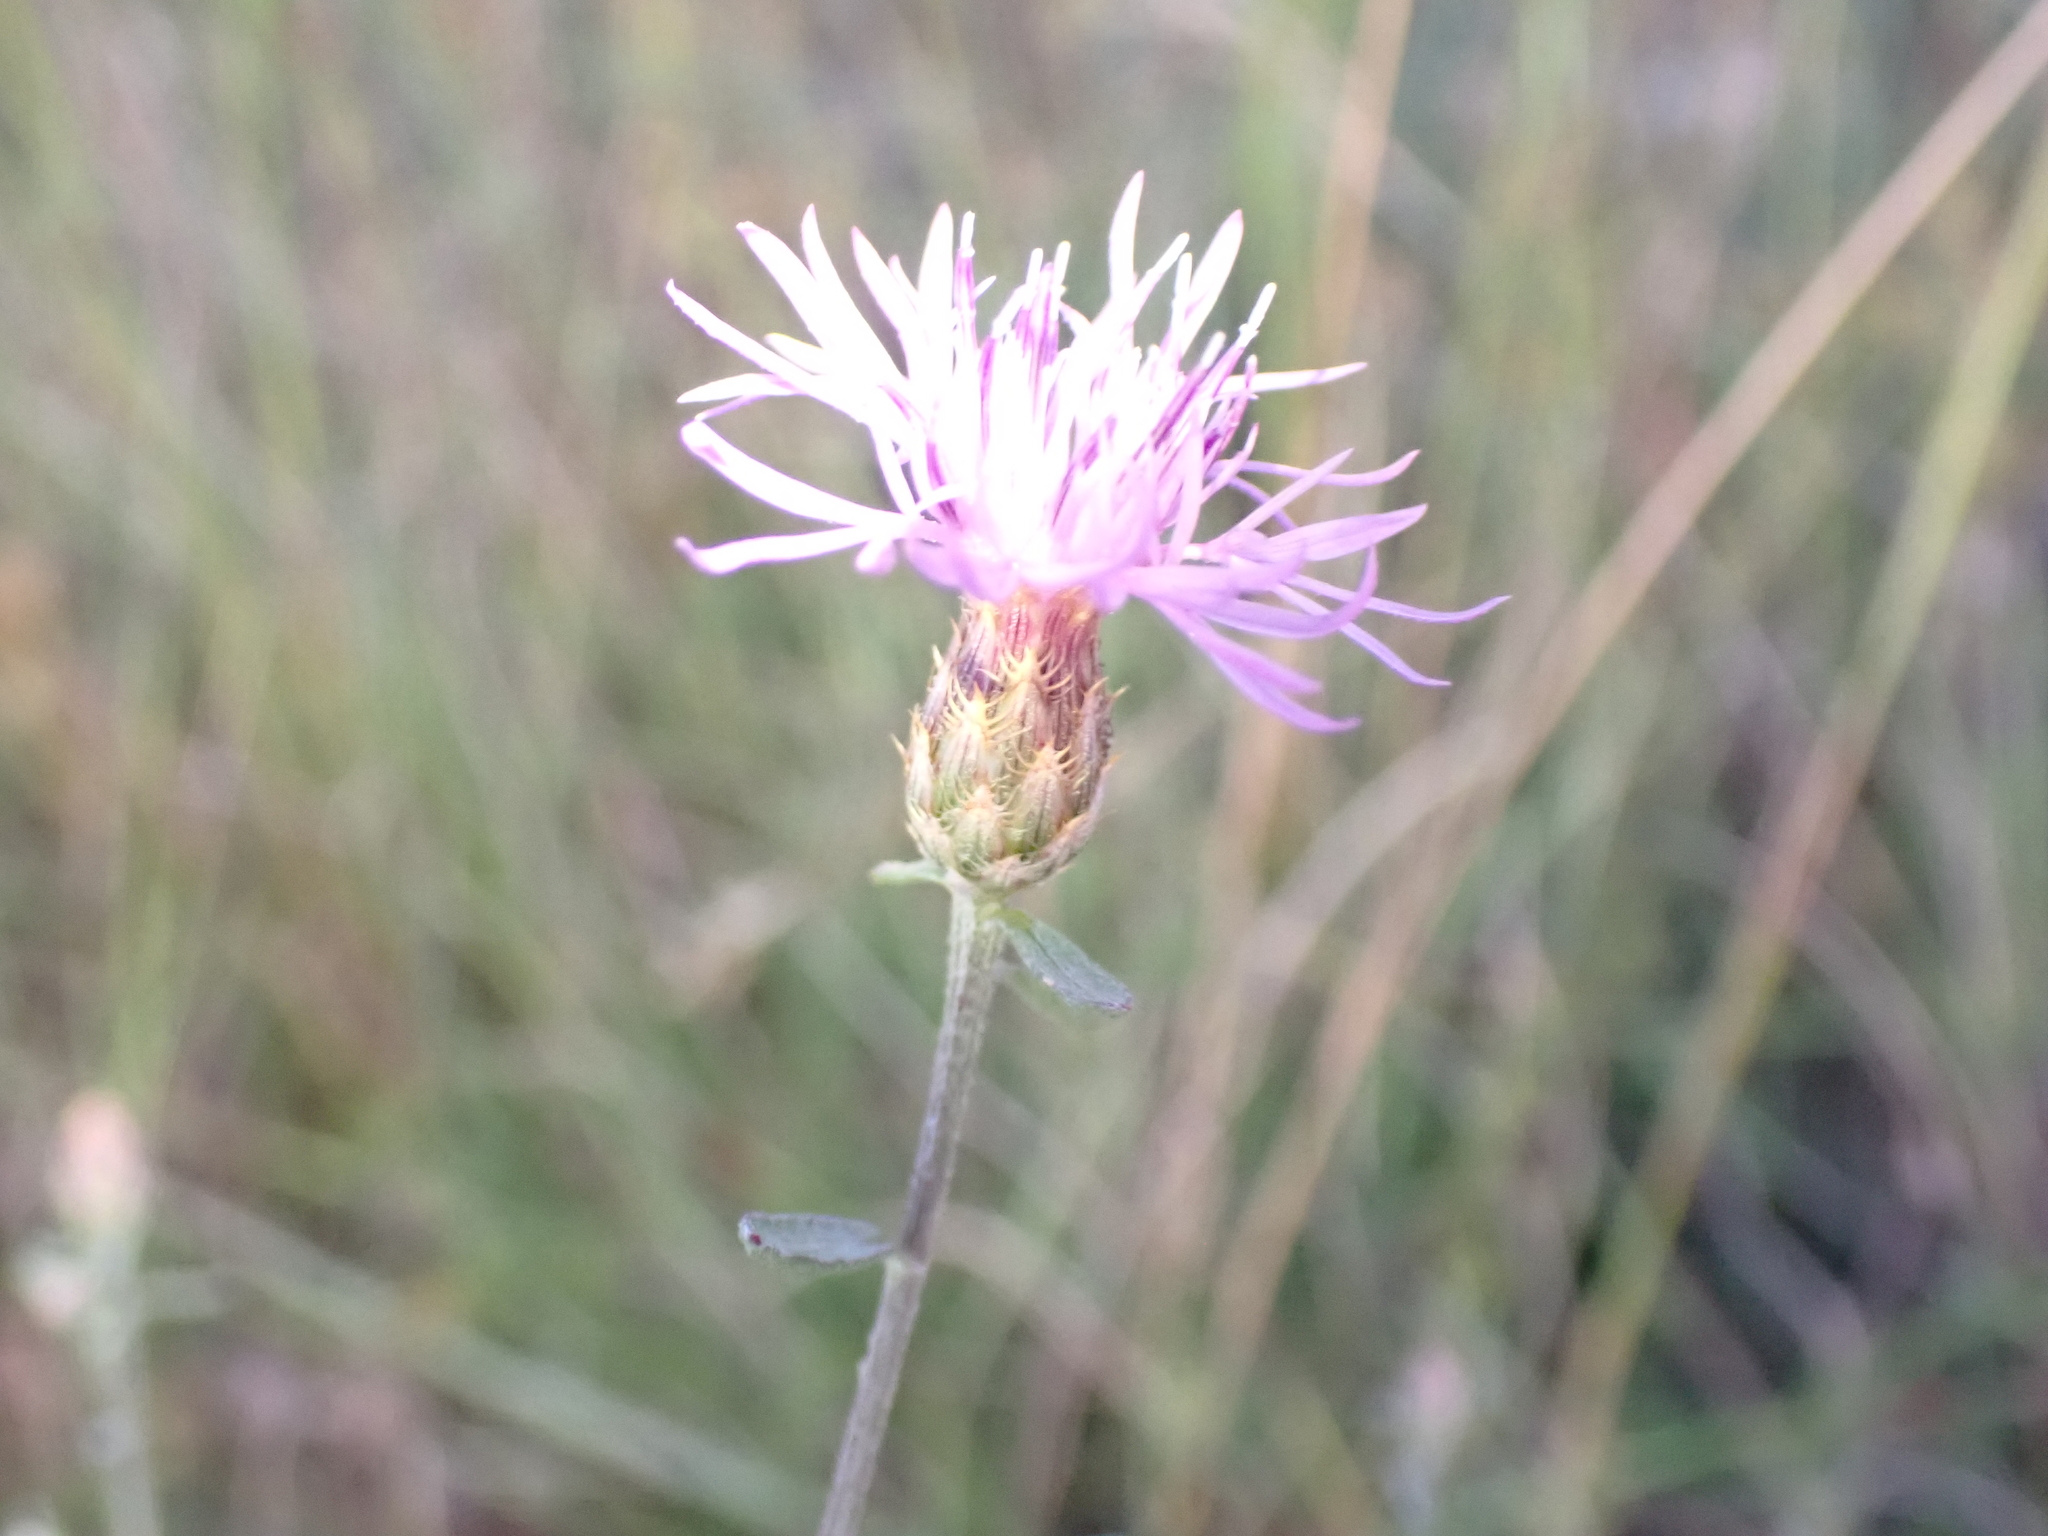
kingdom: Plantae
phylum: Tracheophyta
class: Magnoliopsida
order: Asterales
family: Asteraceae
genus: Centaurea
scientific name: Centaurea paniculata
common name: Jersey knapweed
